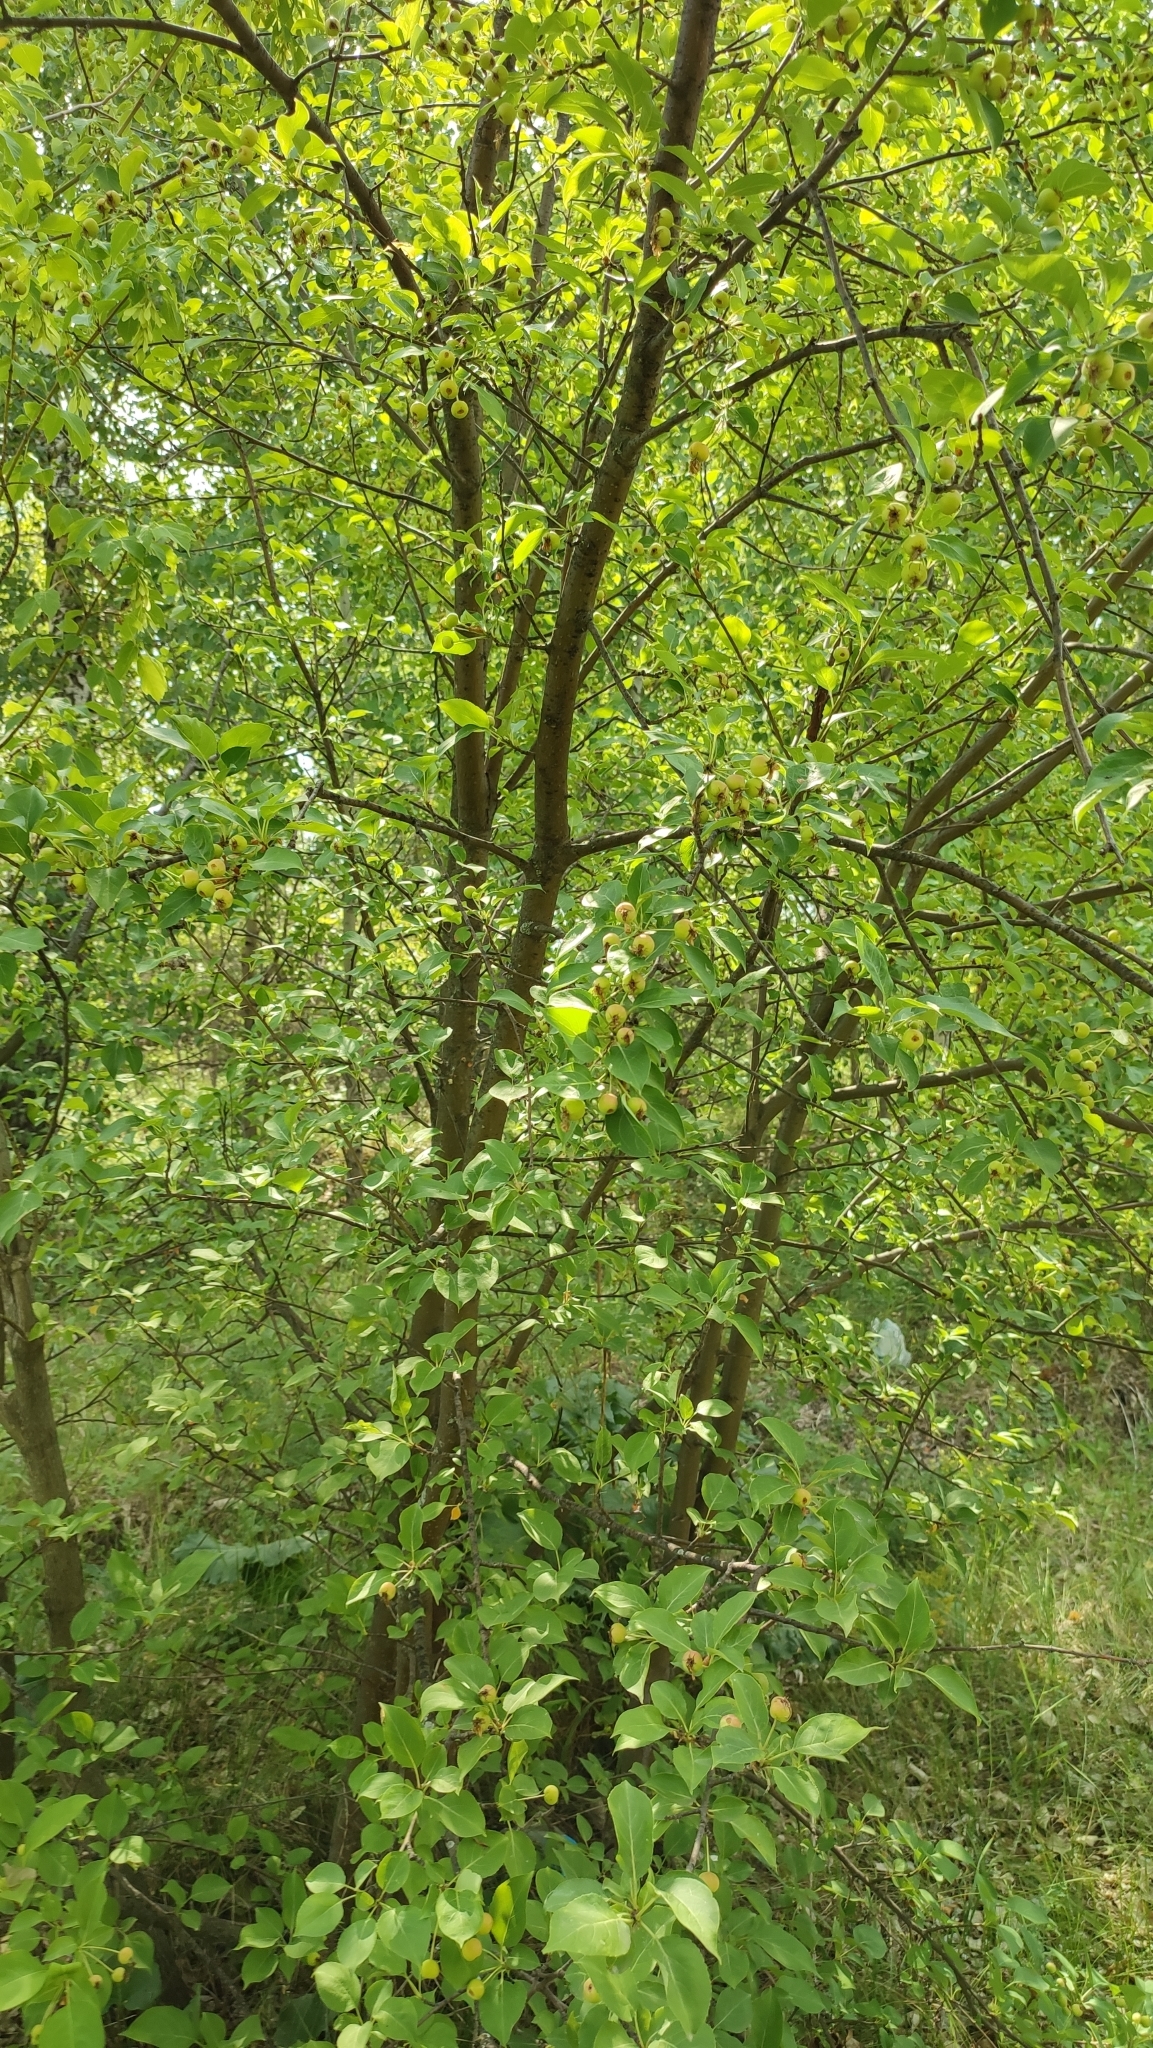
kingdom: Plantae
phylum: Tracheophyta
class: Magnoliopsida
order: Rosales
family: Rosaceae
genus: Malus
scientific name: Malus baccata
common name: Siberian crab
